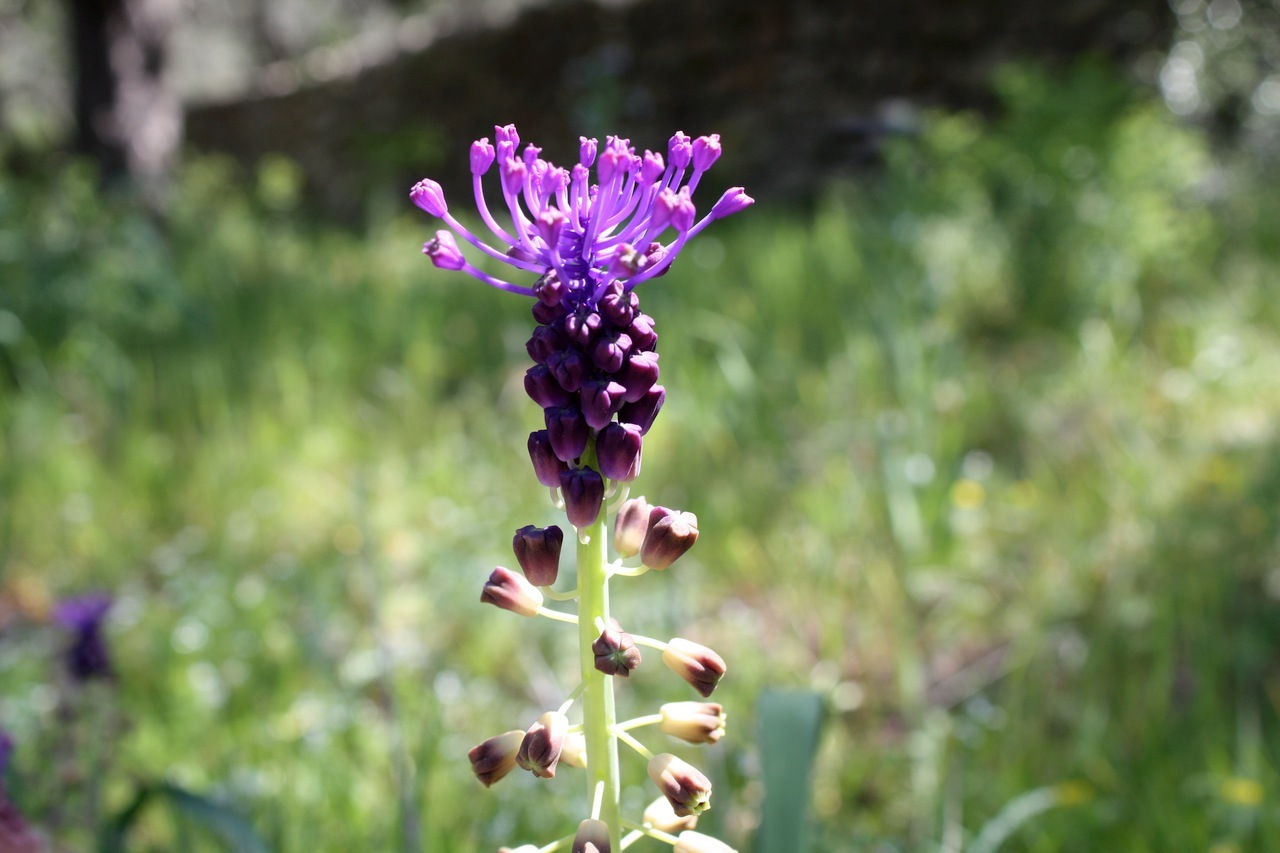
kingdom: Plantae
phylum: Tracheophyta
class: Liliopsida
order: Asparagales
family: Asparagaceae
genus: Muscari
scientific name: Muscari comosum
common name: Tassel hyacinth
